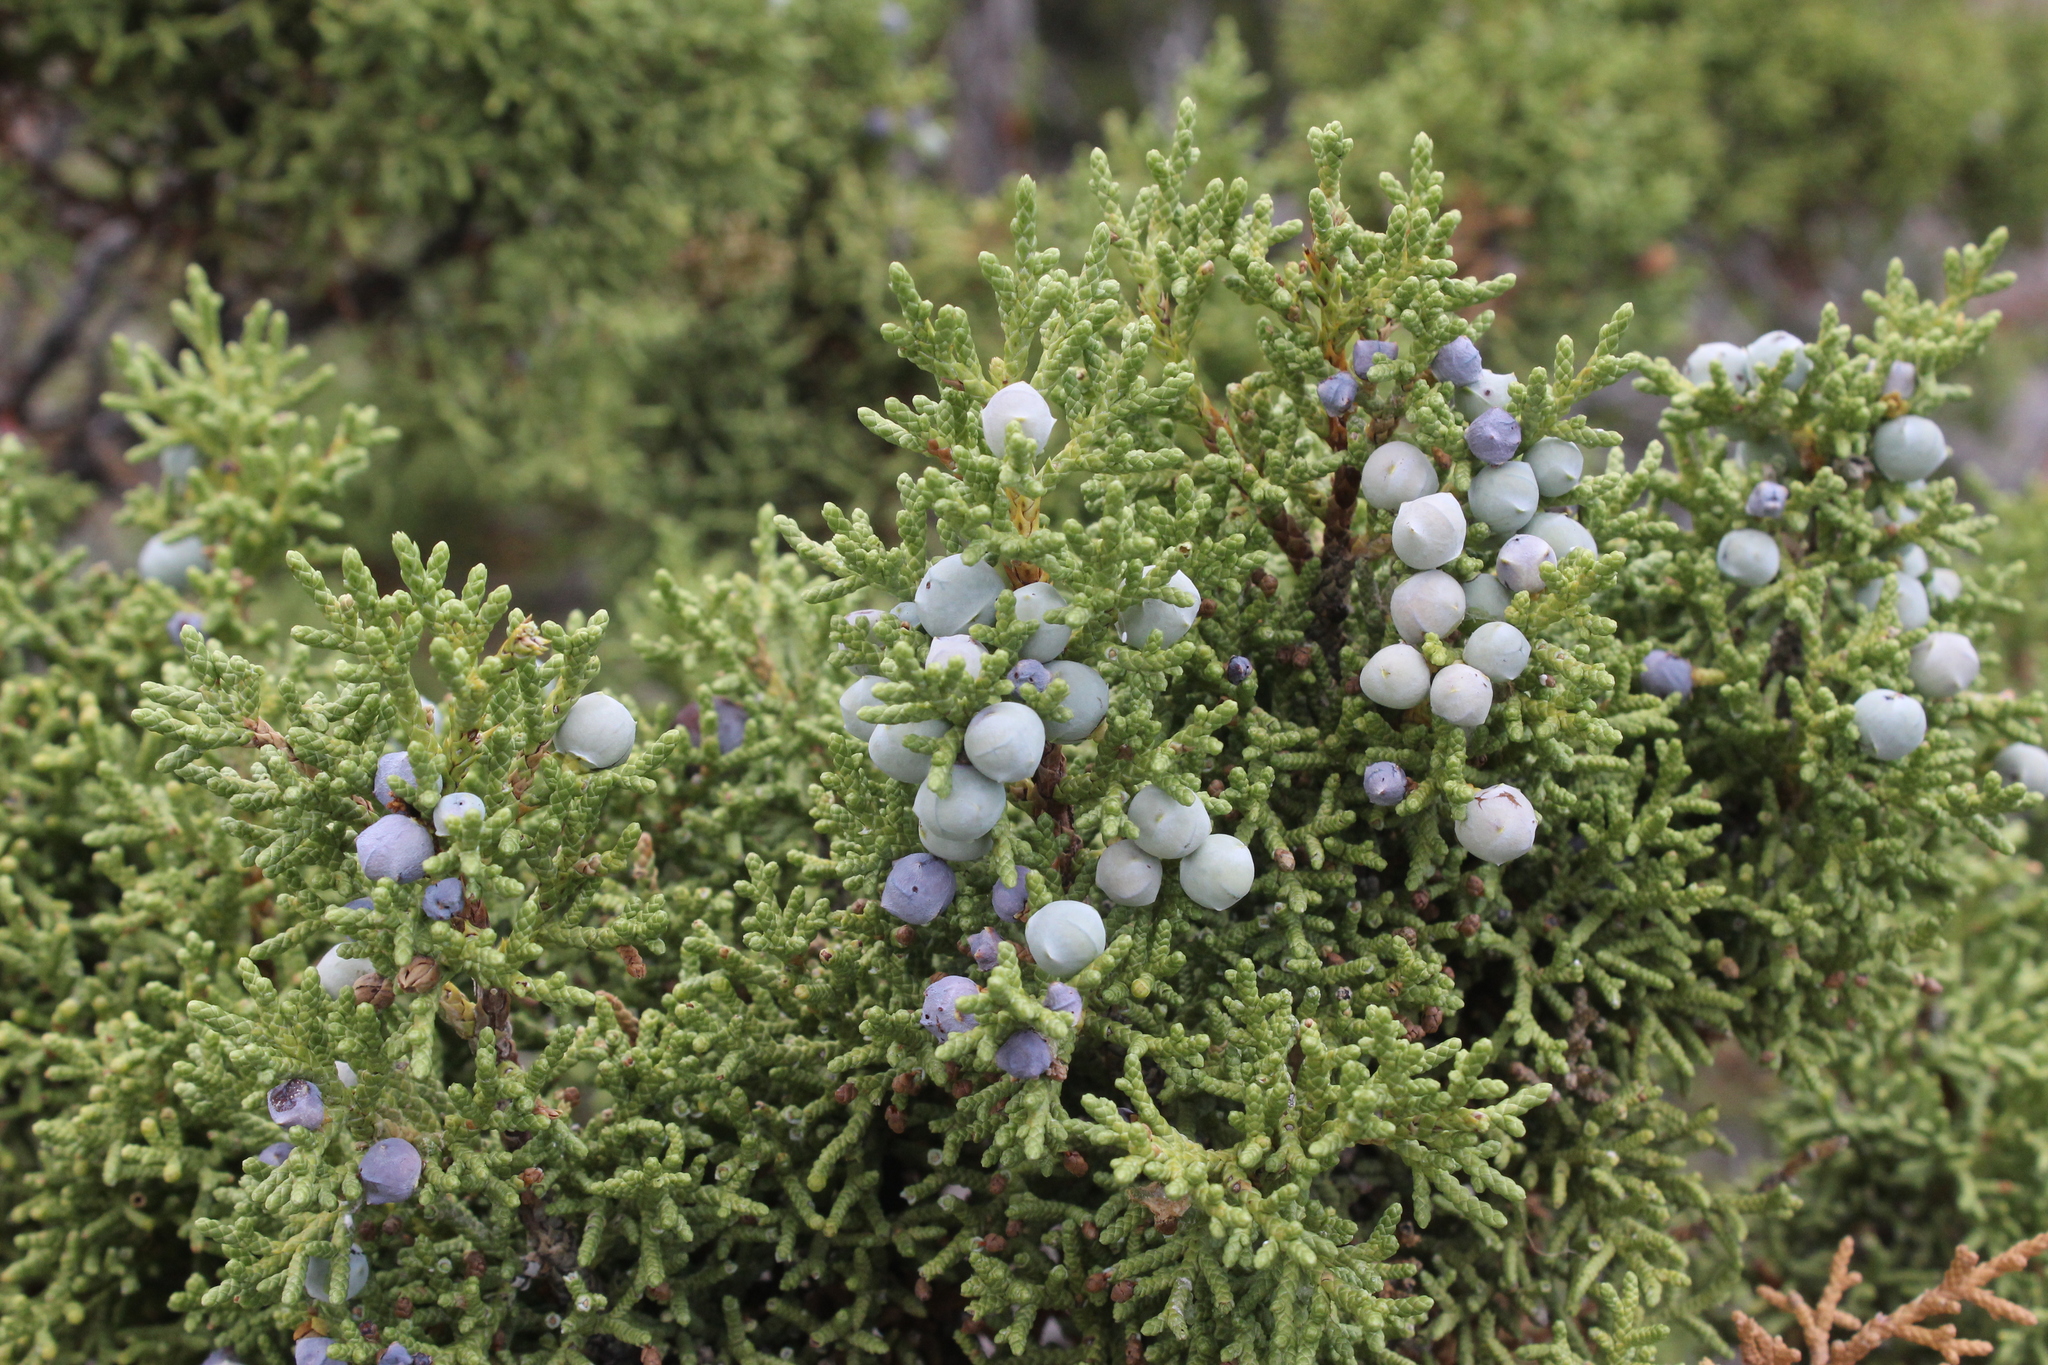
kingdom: Plantae
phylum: Tracheophyta
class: Pinopsida
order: Pinales
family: Cupressaceae
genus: Juniperus
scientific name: Juniperus osteosperma
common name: Utah juniper
